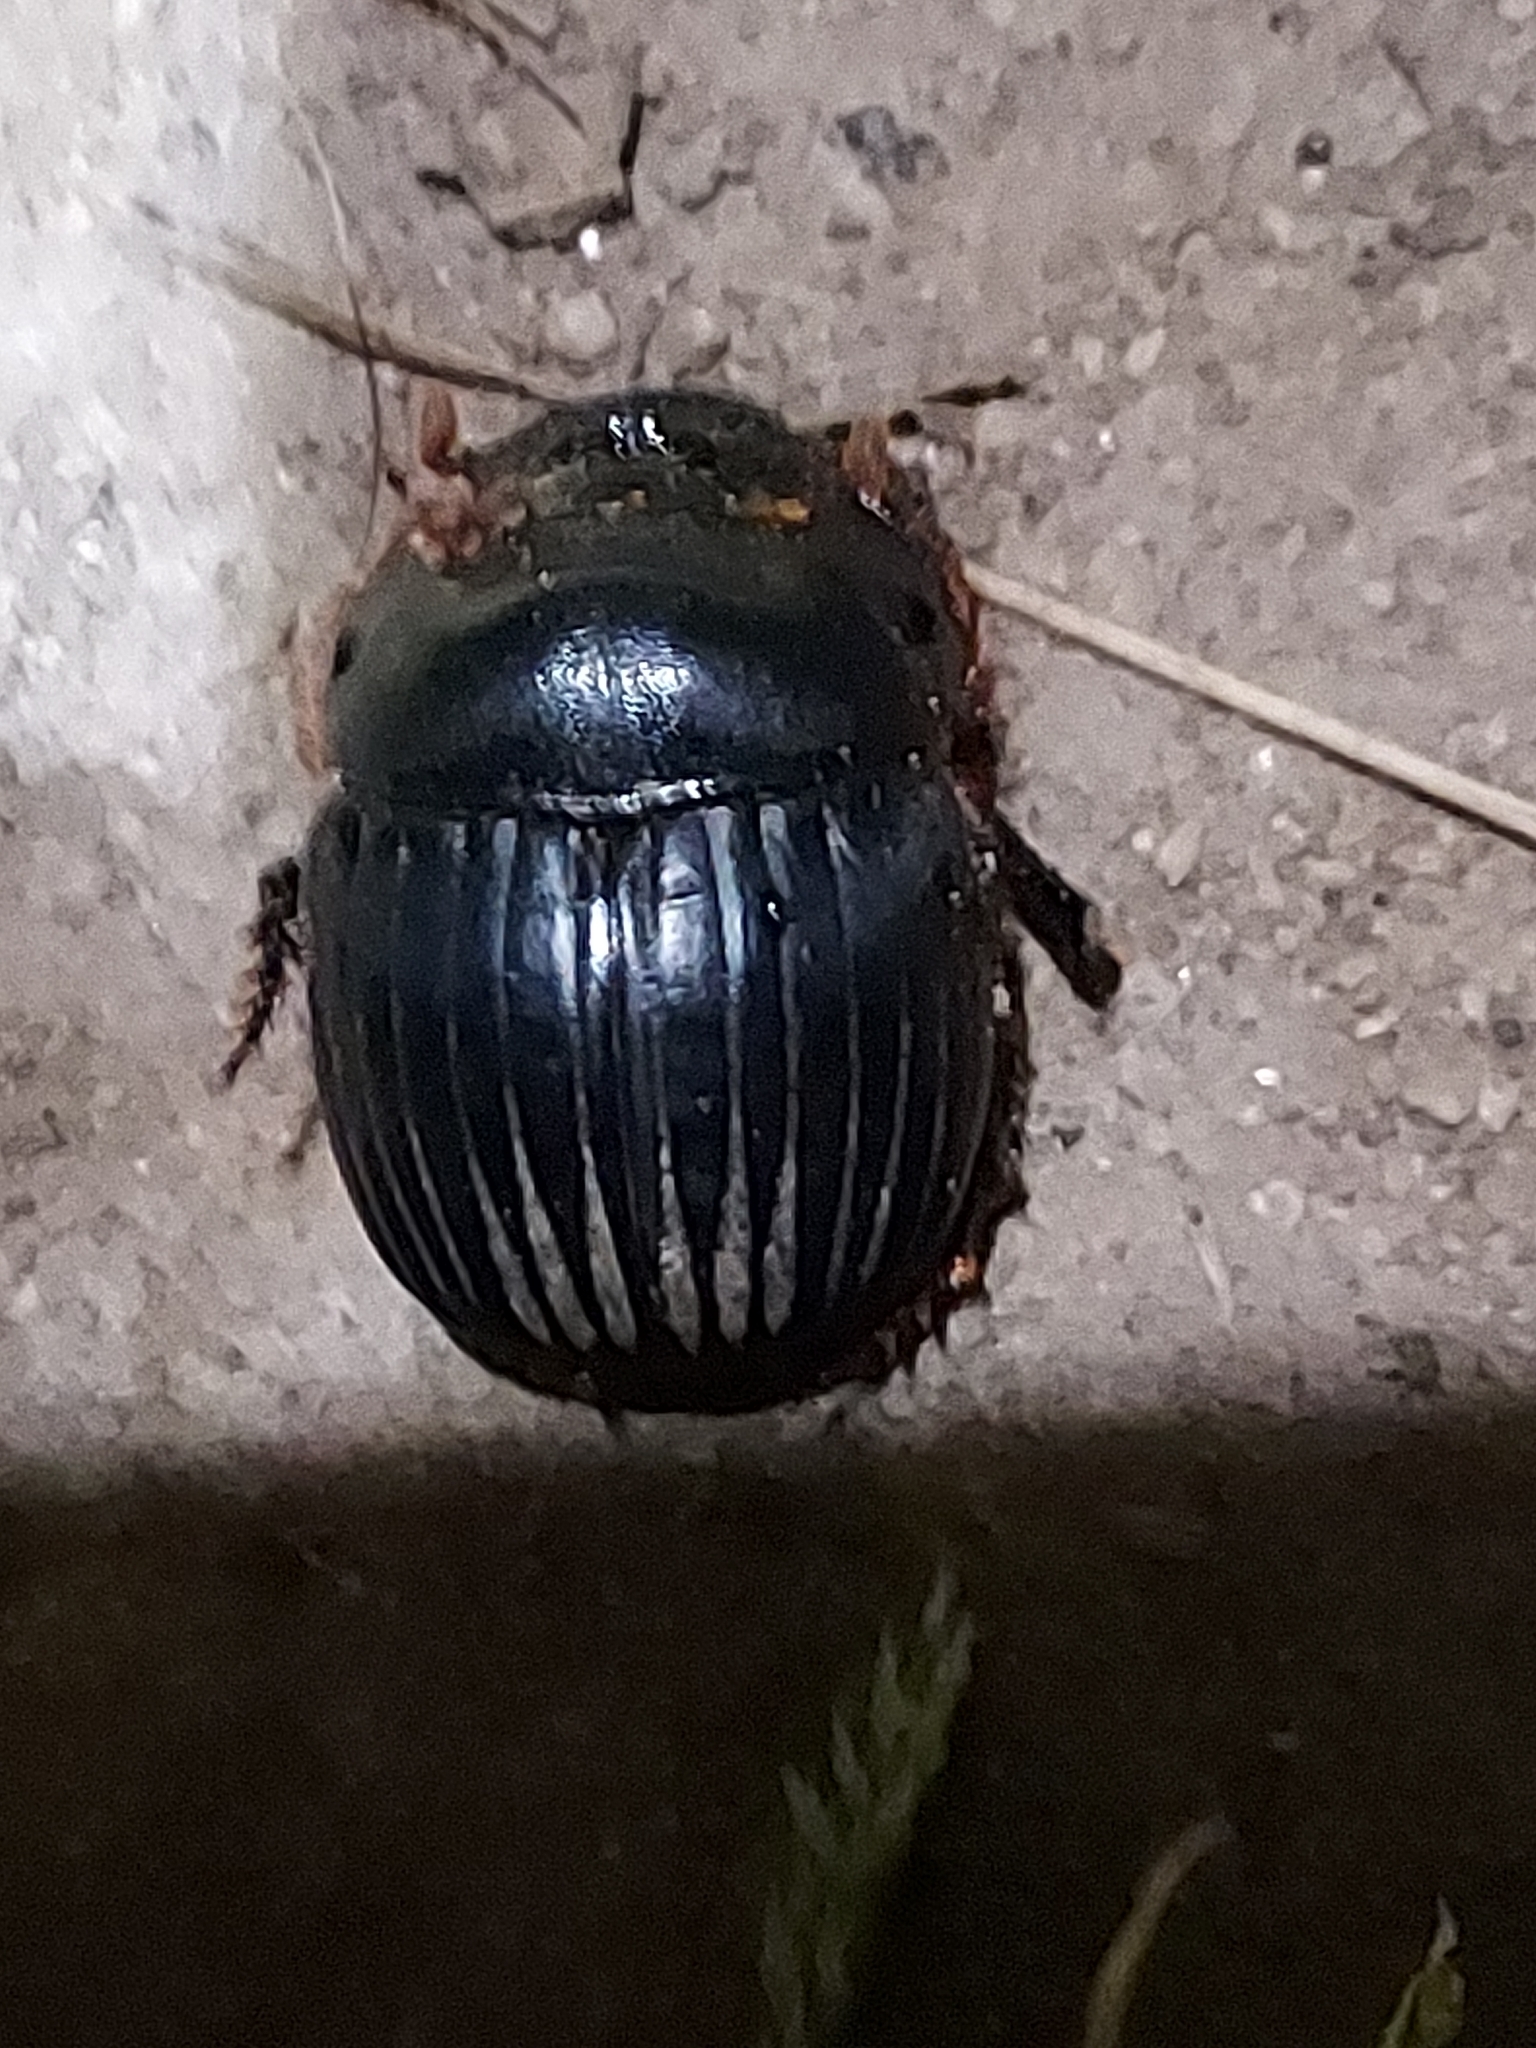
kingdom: Animalia
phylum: Arthropoda
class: Insecta
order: Coleoptera
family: Scarabaeidae
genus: Dichotomius
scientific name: Dichotomius carolinus
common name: Carolina copris
